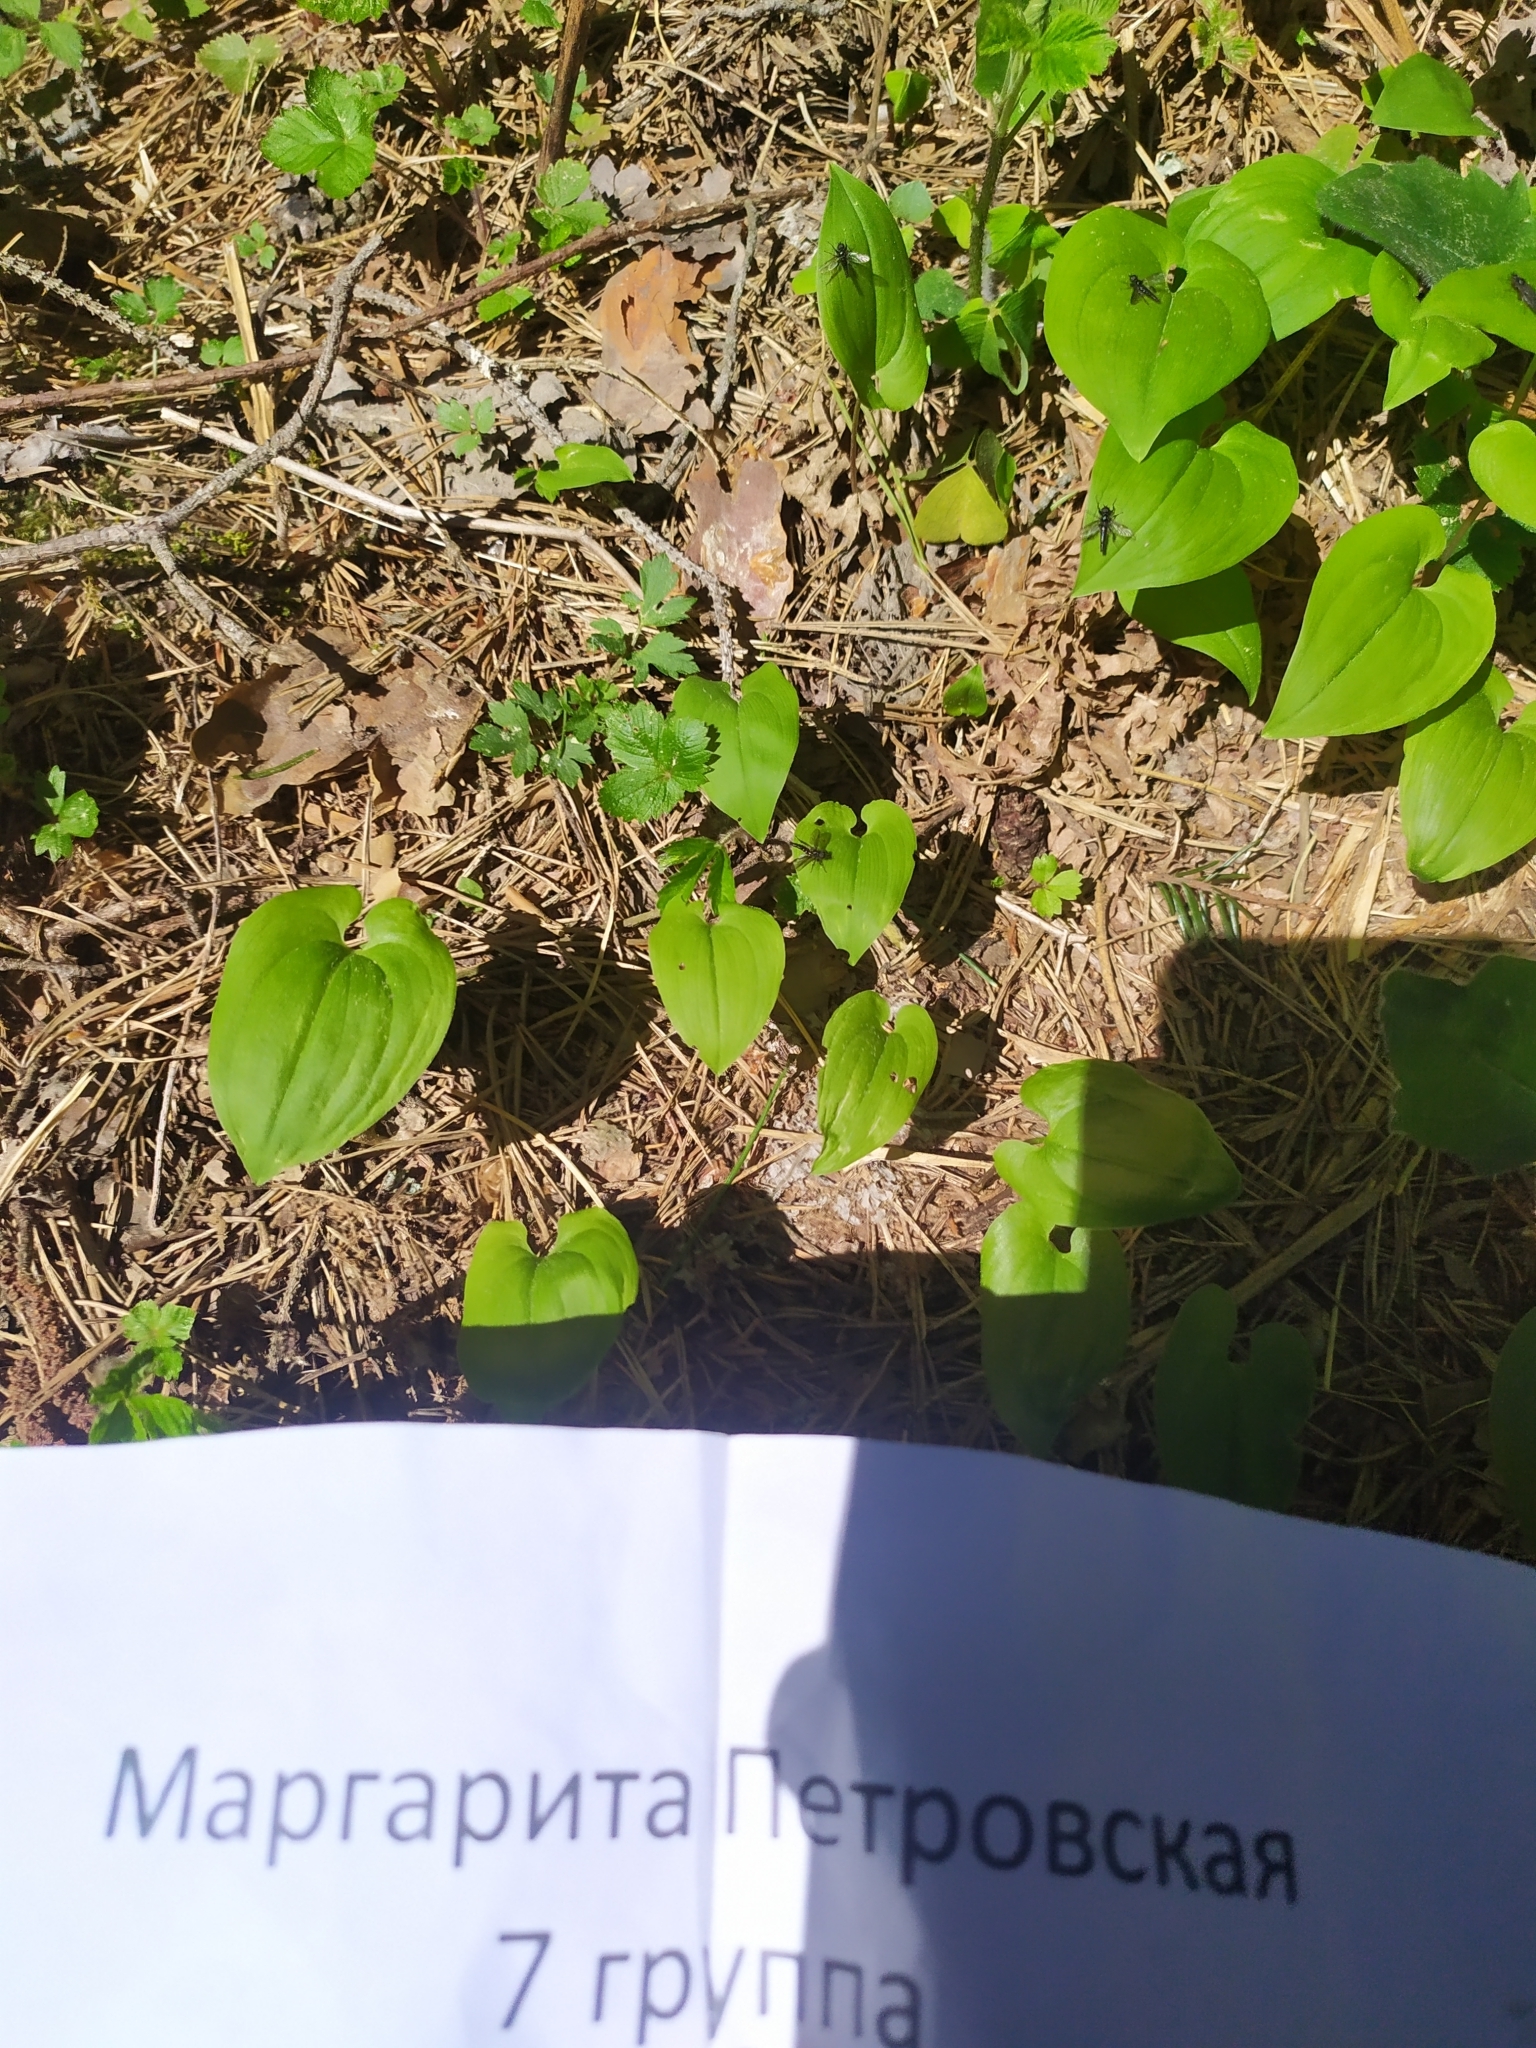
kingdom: Plantae
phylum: Tracheophyta
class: Liliopsida
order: Asparagales
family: Asparagaceae
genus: Maianthemum
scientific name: Maianthemum bifolium
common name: May lily
